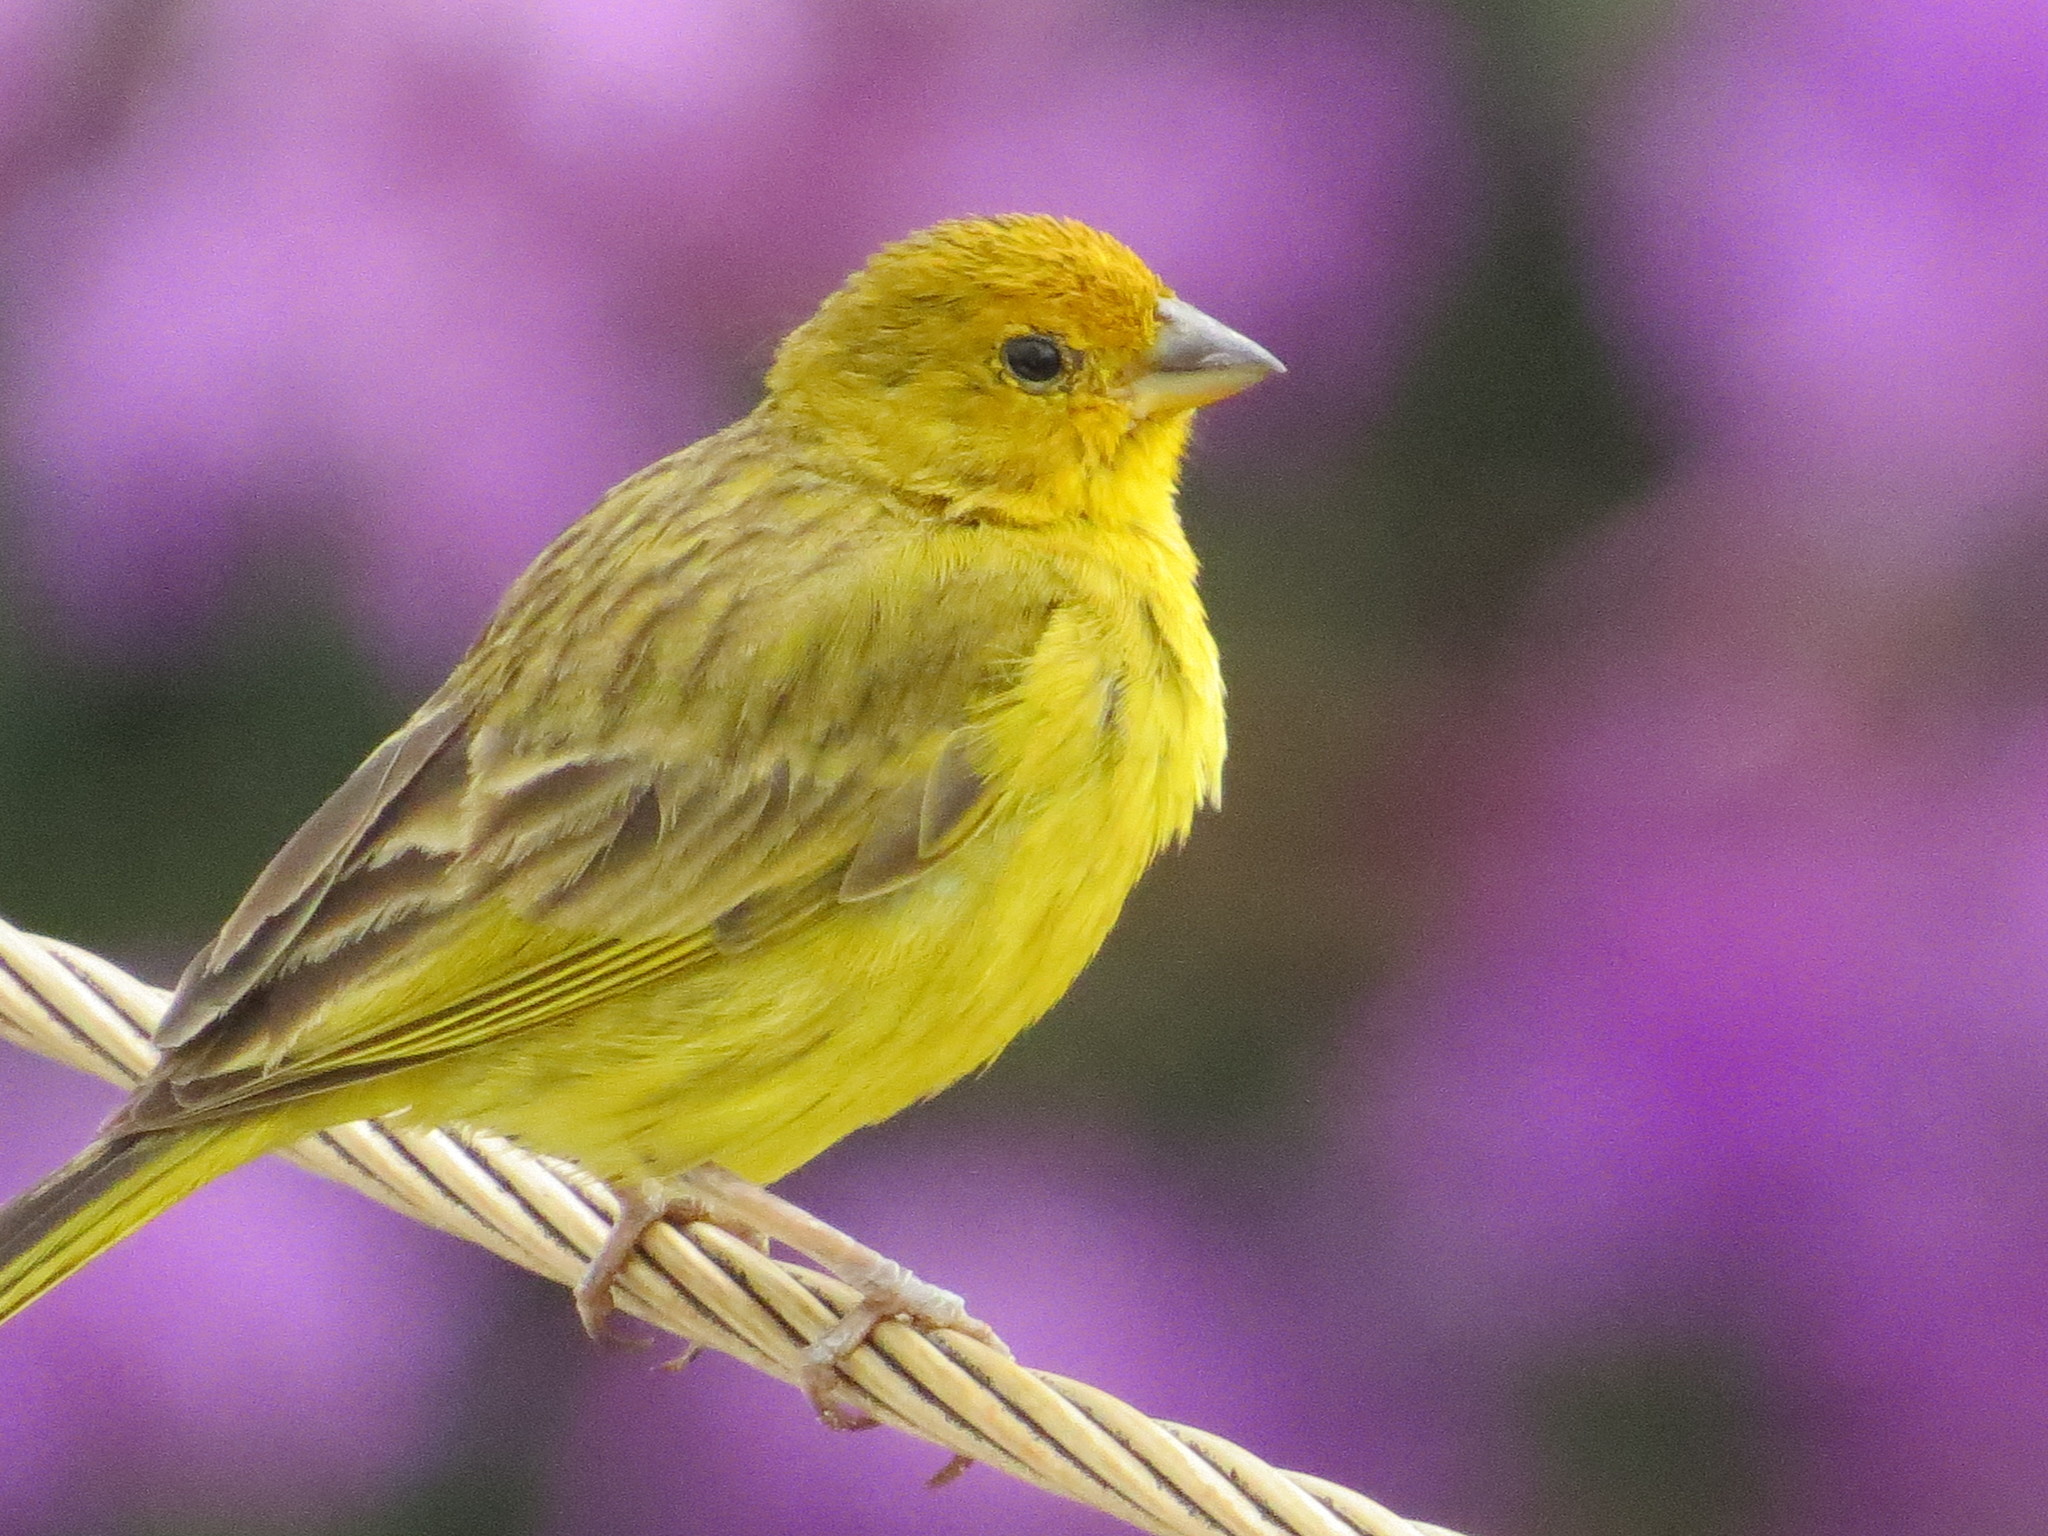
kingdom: Animalia
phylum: Chordata
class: Aves
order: Passeriformes
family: Thraupidae
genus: Sicalis
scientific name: Sicalis flaveola
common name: Saffron finch
